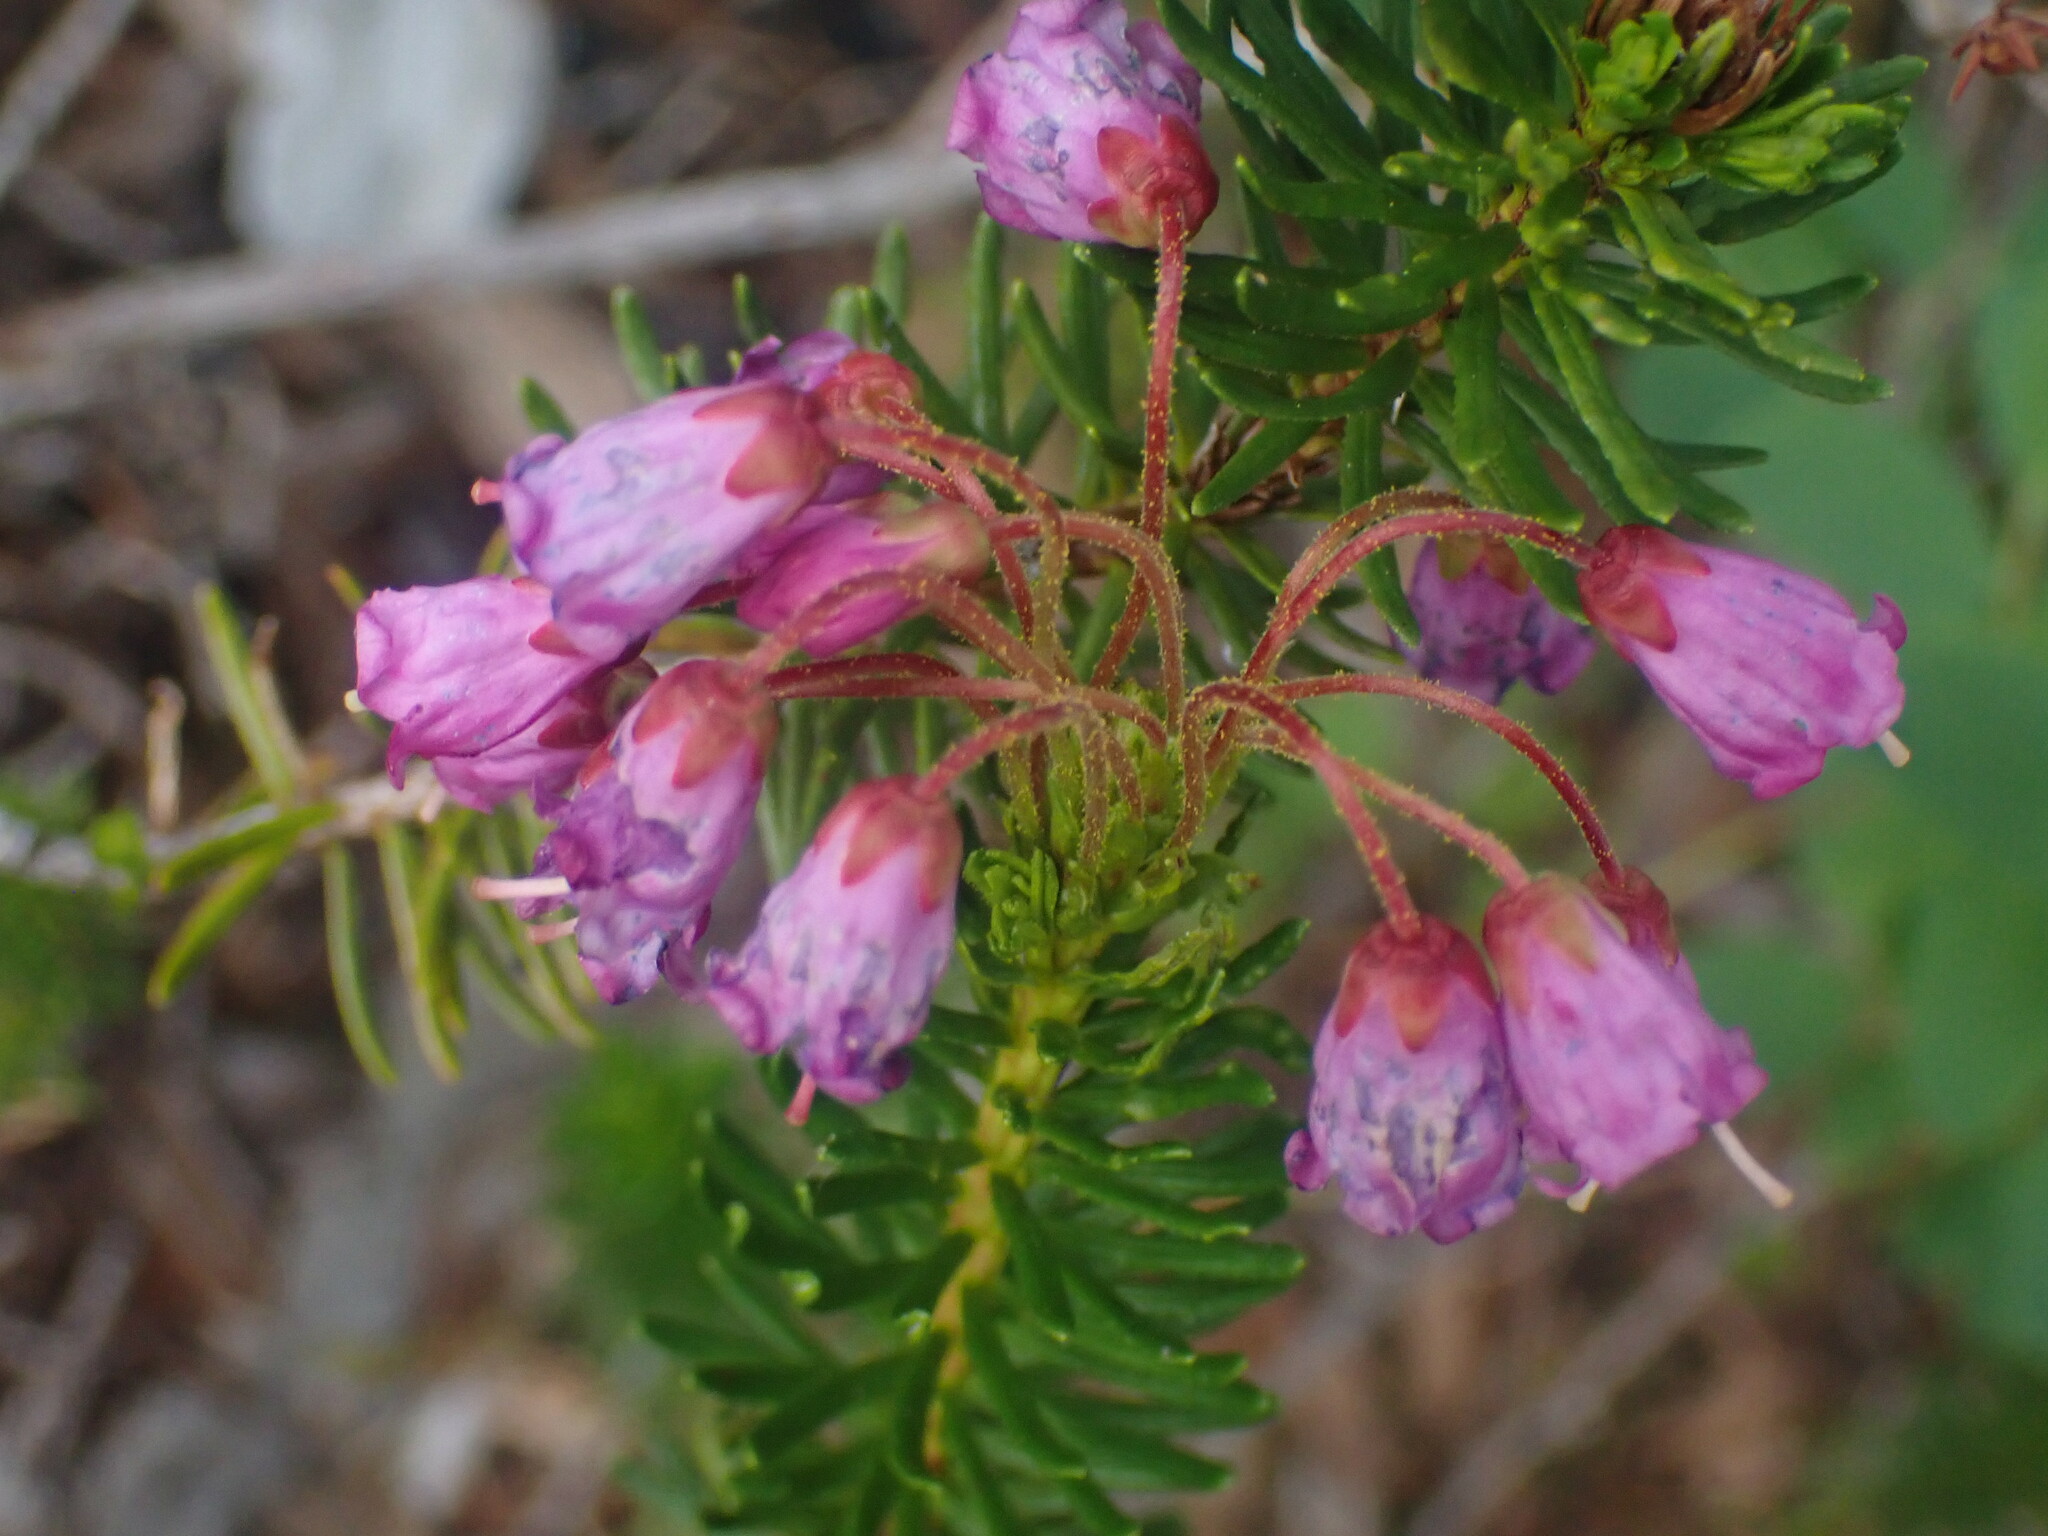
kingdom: Plantae
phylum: Tracheophyta
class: Magnoliopsida
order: Ericales
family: Ericaceae
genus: Phyllodoce
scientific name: Phyllodoce empetriformis
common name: Pink mountain heather
